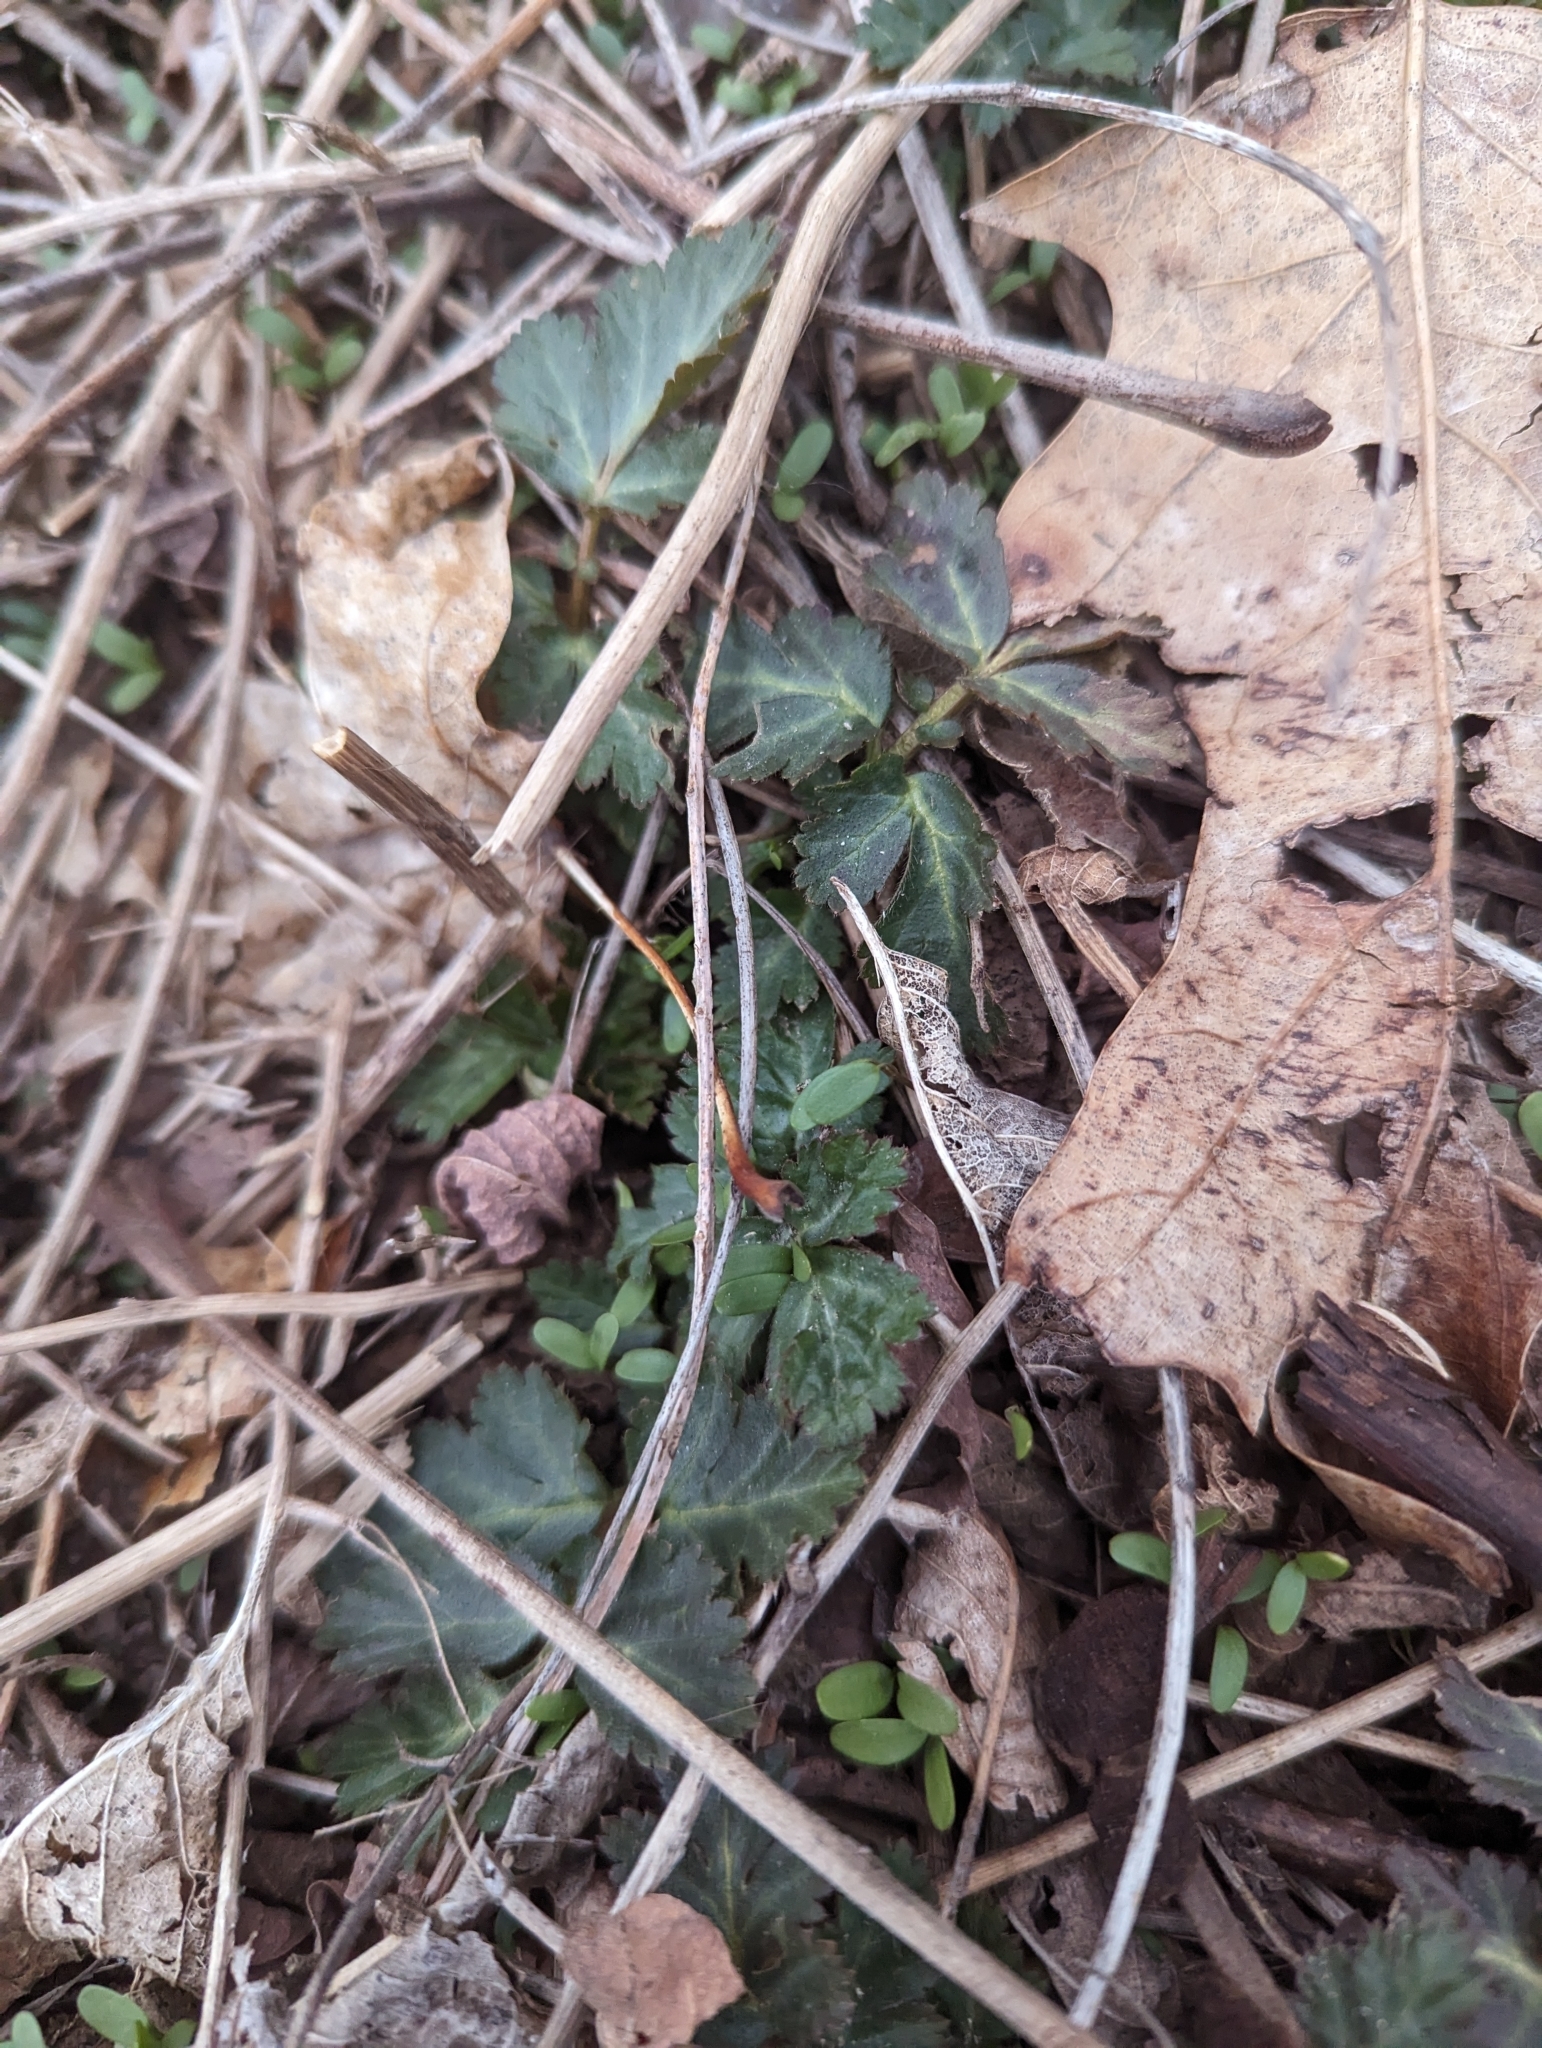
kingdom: Plantae
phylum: Tracheophyta
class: Magnoliopsida
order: Rosales
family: Rosaceae
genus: Geum
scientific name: Geum canadense
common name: White avens
